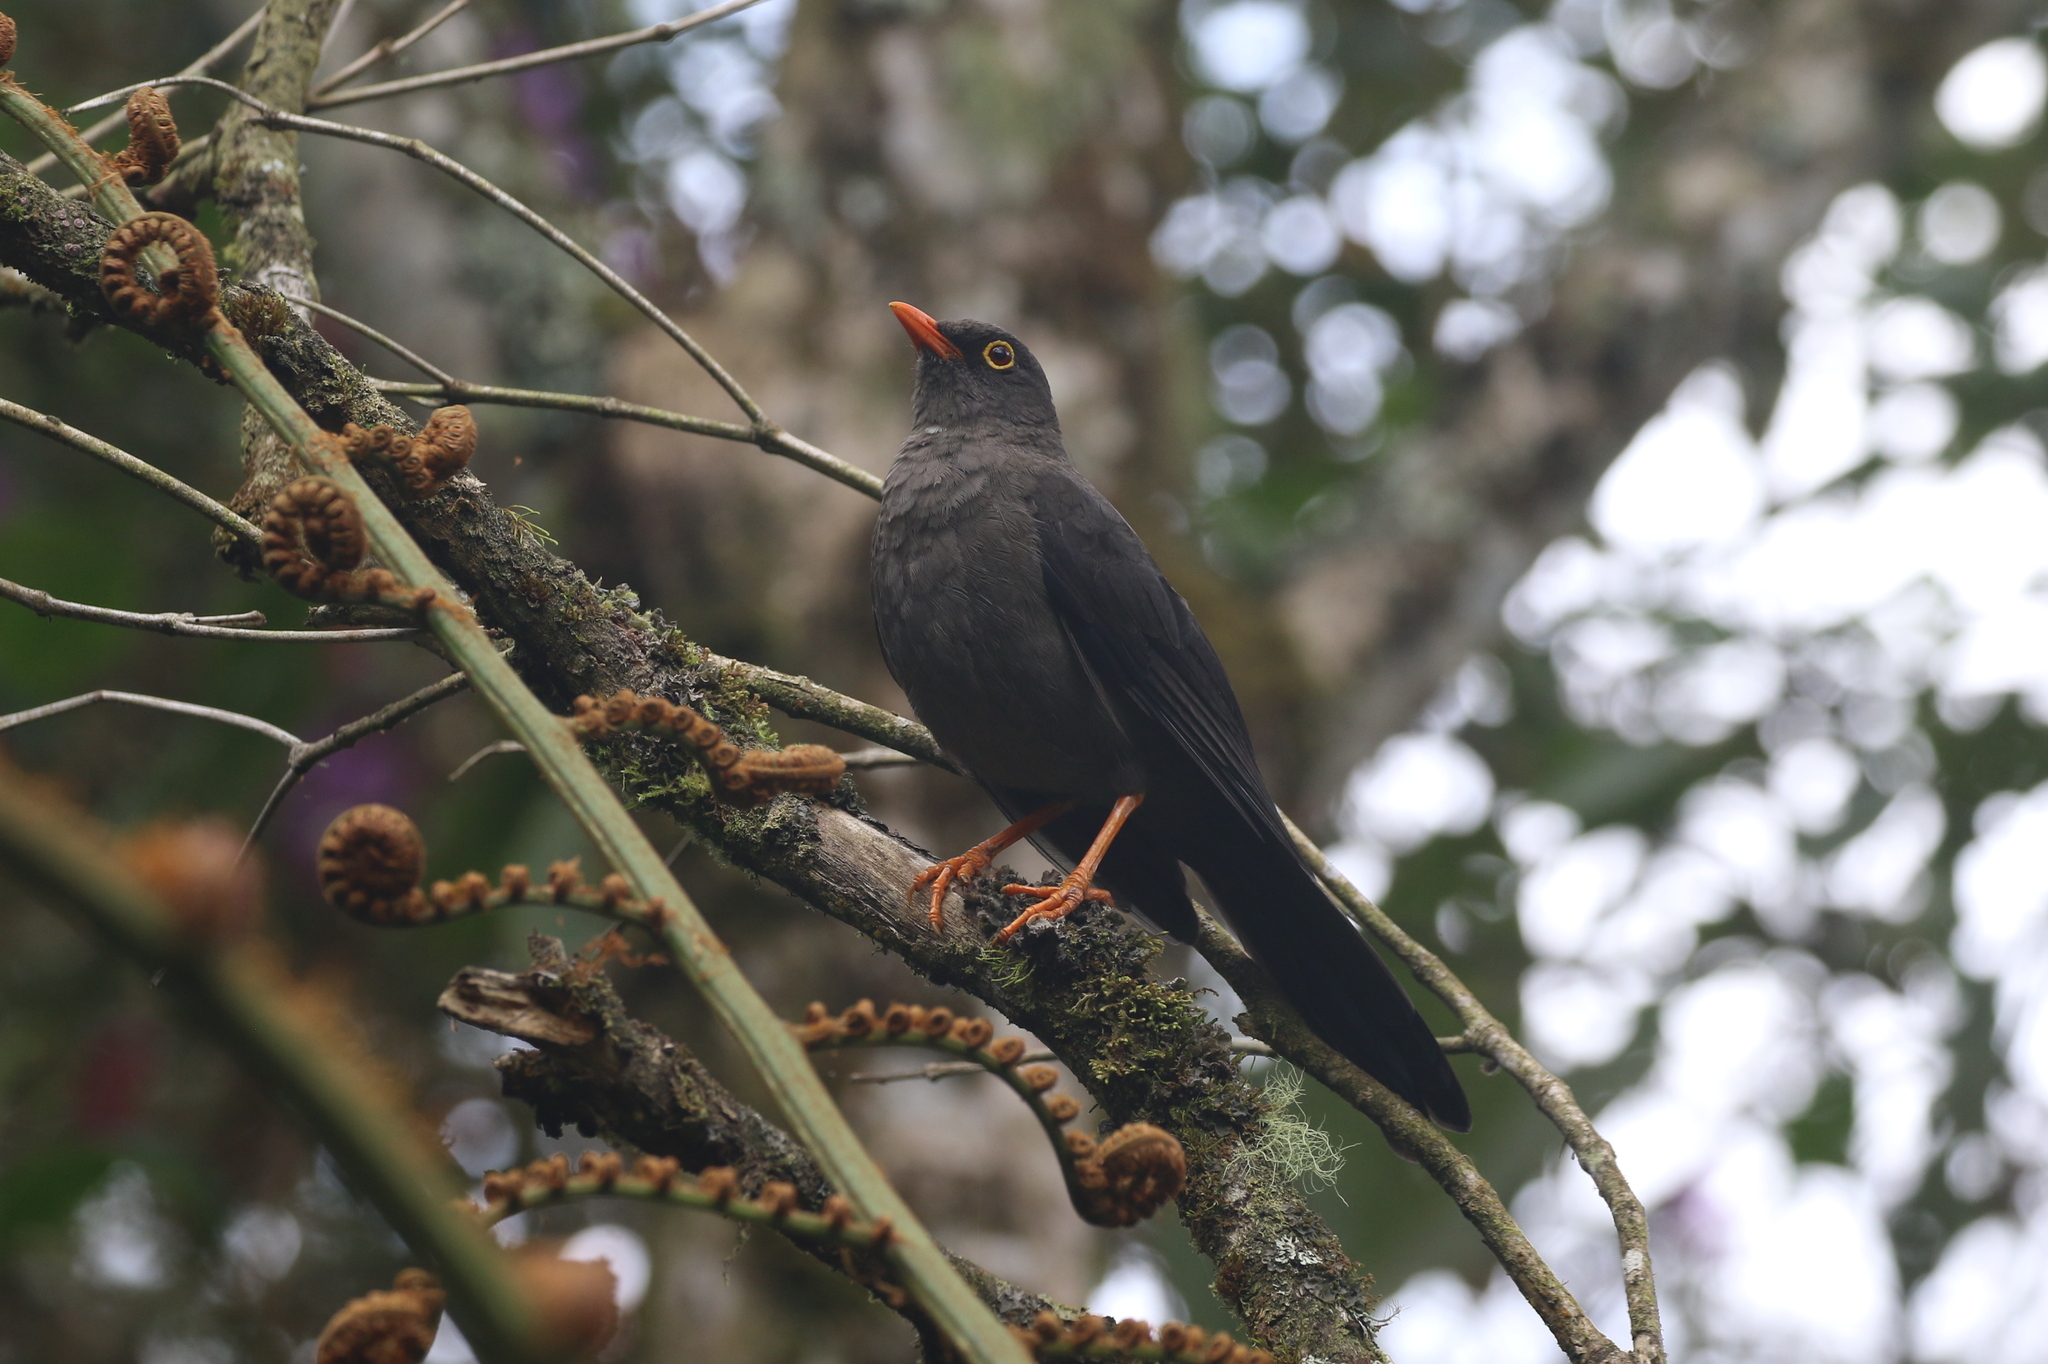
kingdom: Animalia
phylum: Chordata
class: Aves
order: Passeriformes
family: Turdidae
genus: Turdus
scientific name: Turdus fuscater
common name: Great thrush
